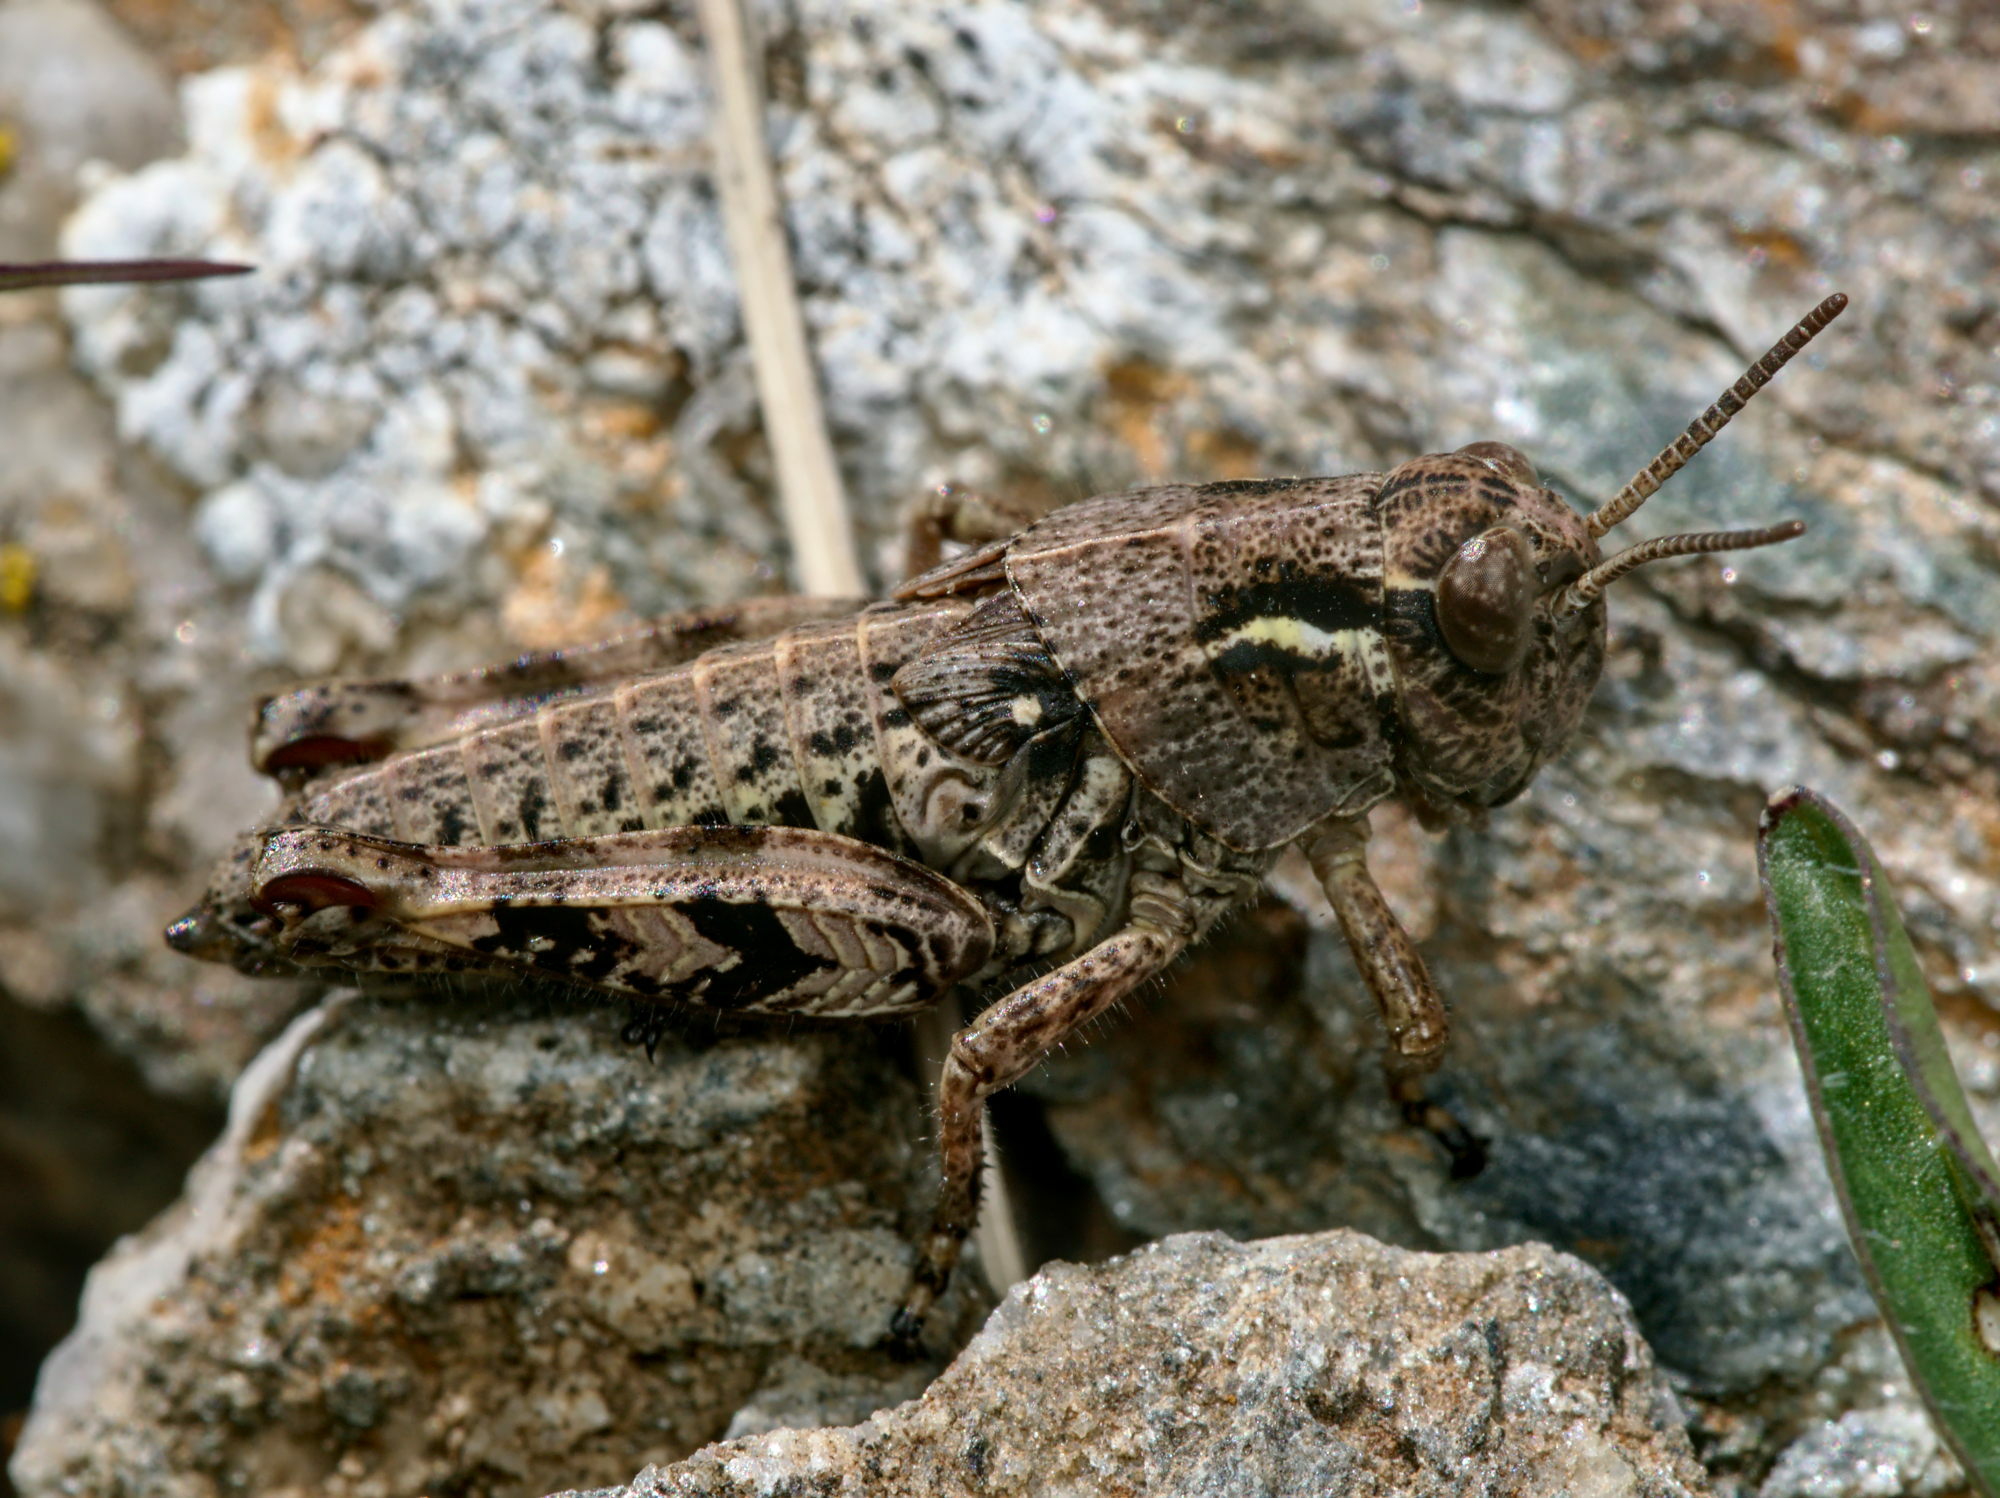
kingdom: Animalia
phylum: Arthropoda
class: Insecta
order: Orthoptera
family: Acrididae
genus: Bohemanella
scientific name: Bohemanella frigida
